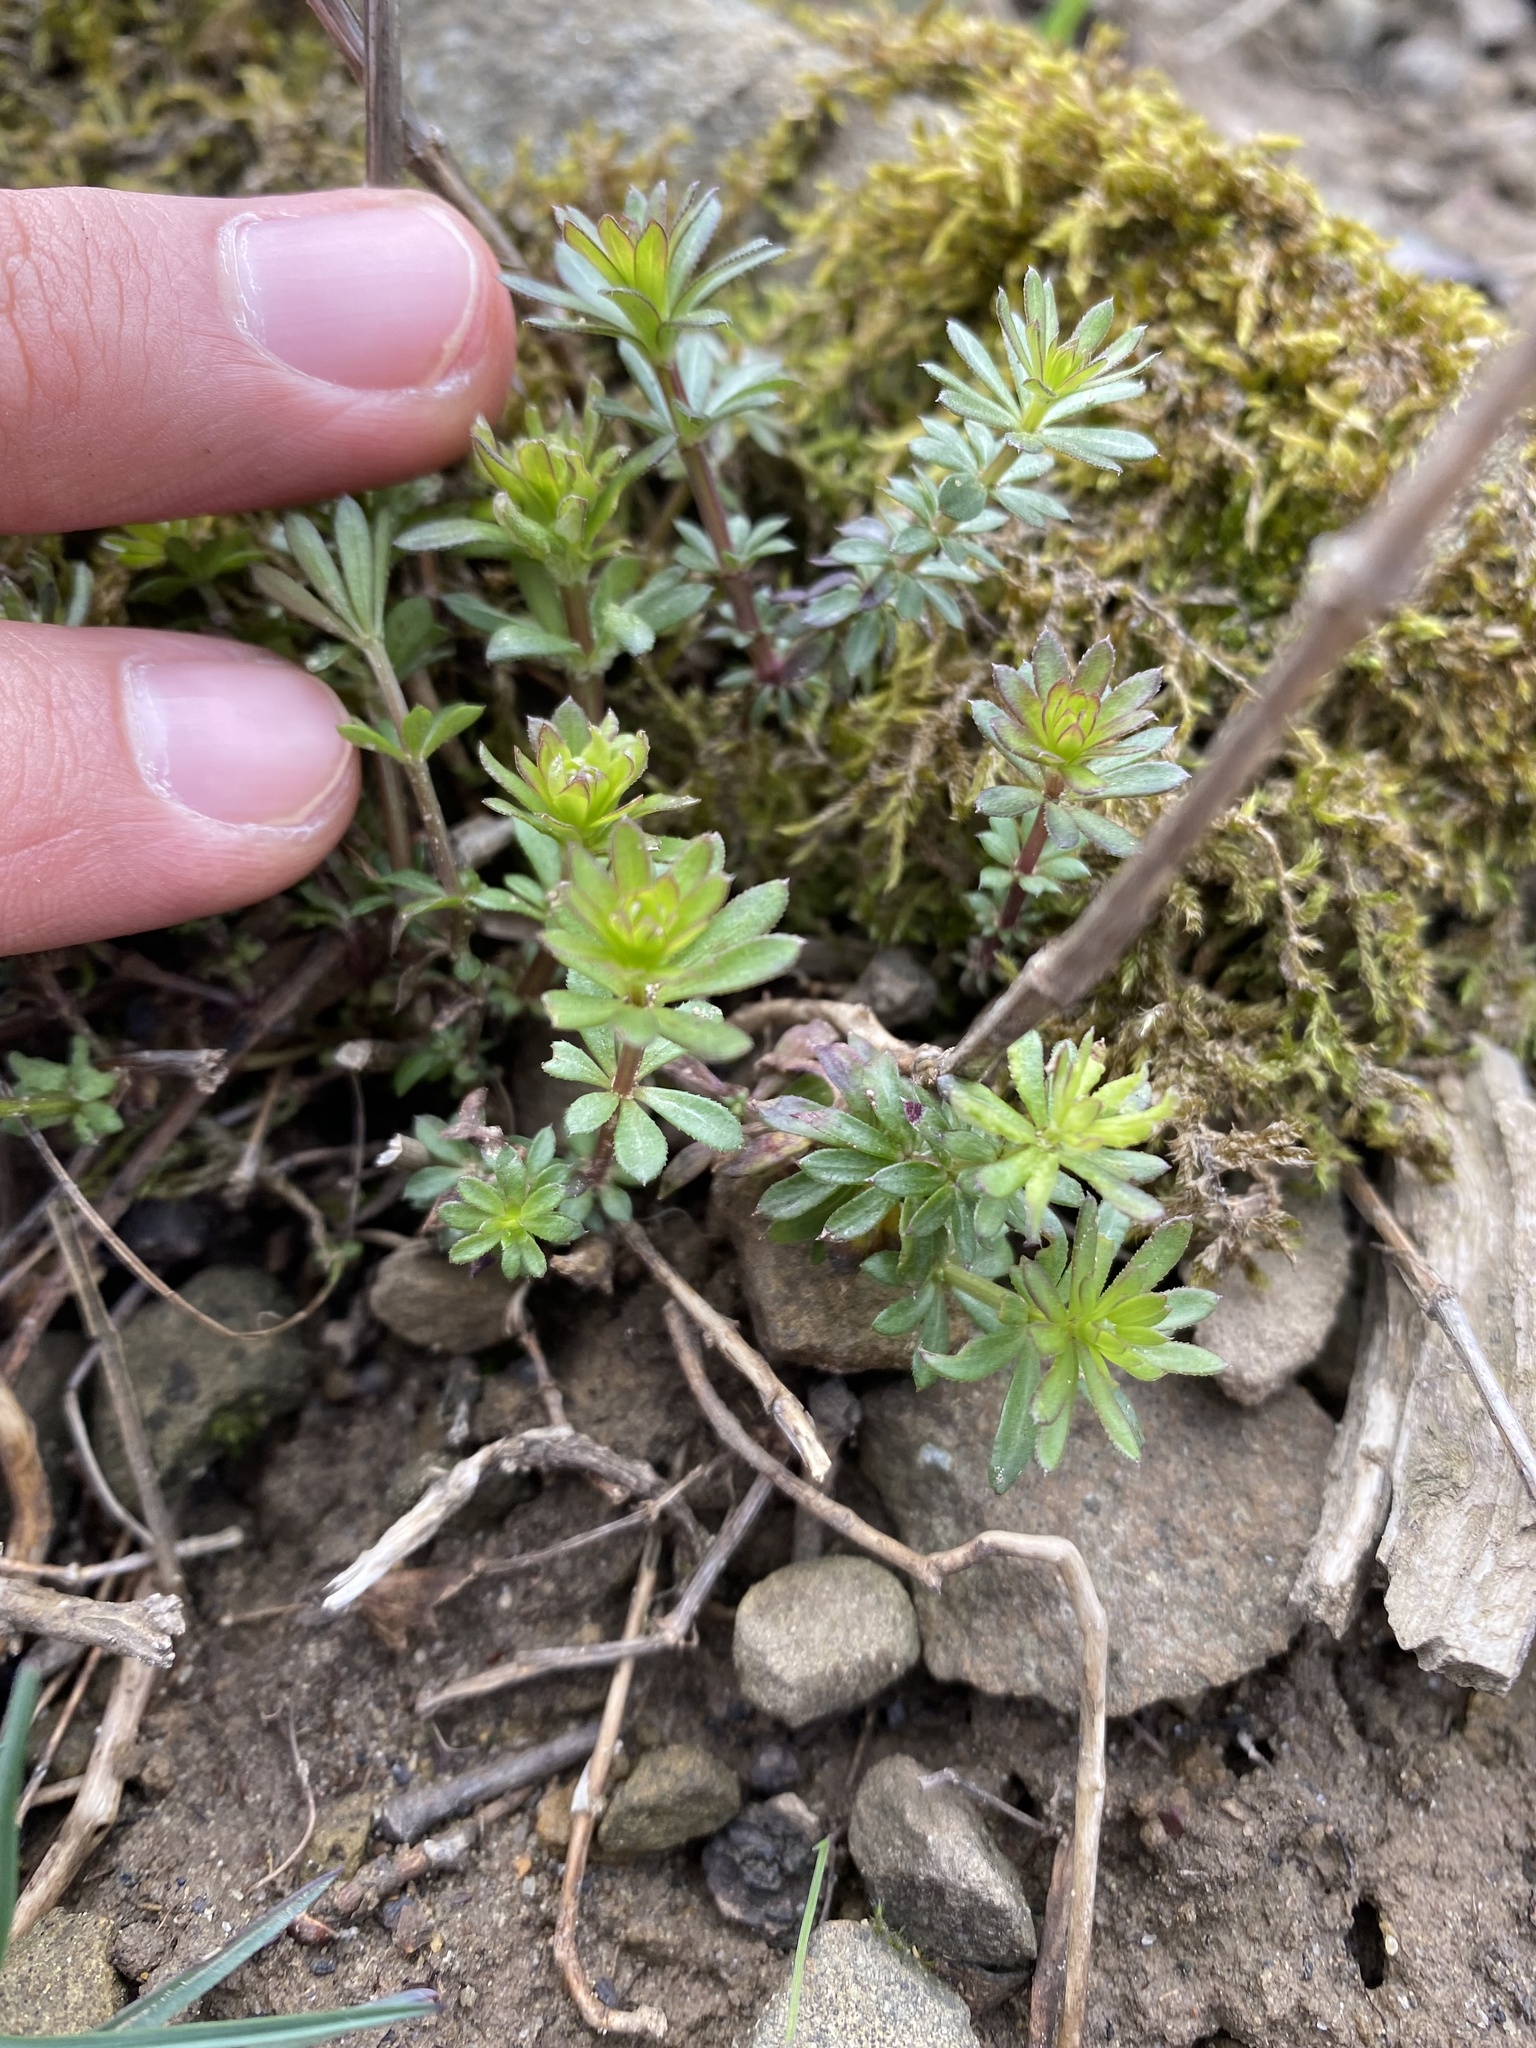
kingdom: Plantae
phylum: Tracheophyta
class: Magnoliopsida
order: Gentianales
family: Rubiaceae
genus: Galium
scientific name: Galium mollugo
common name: Hedge bedstraw
